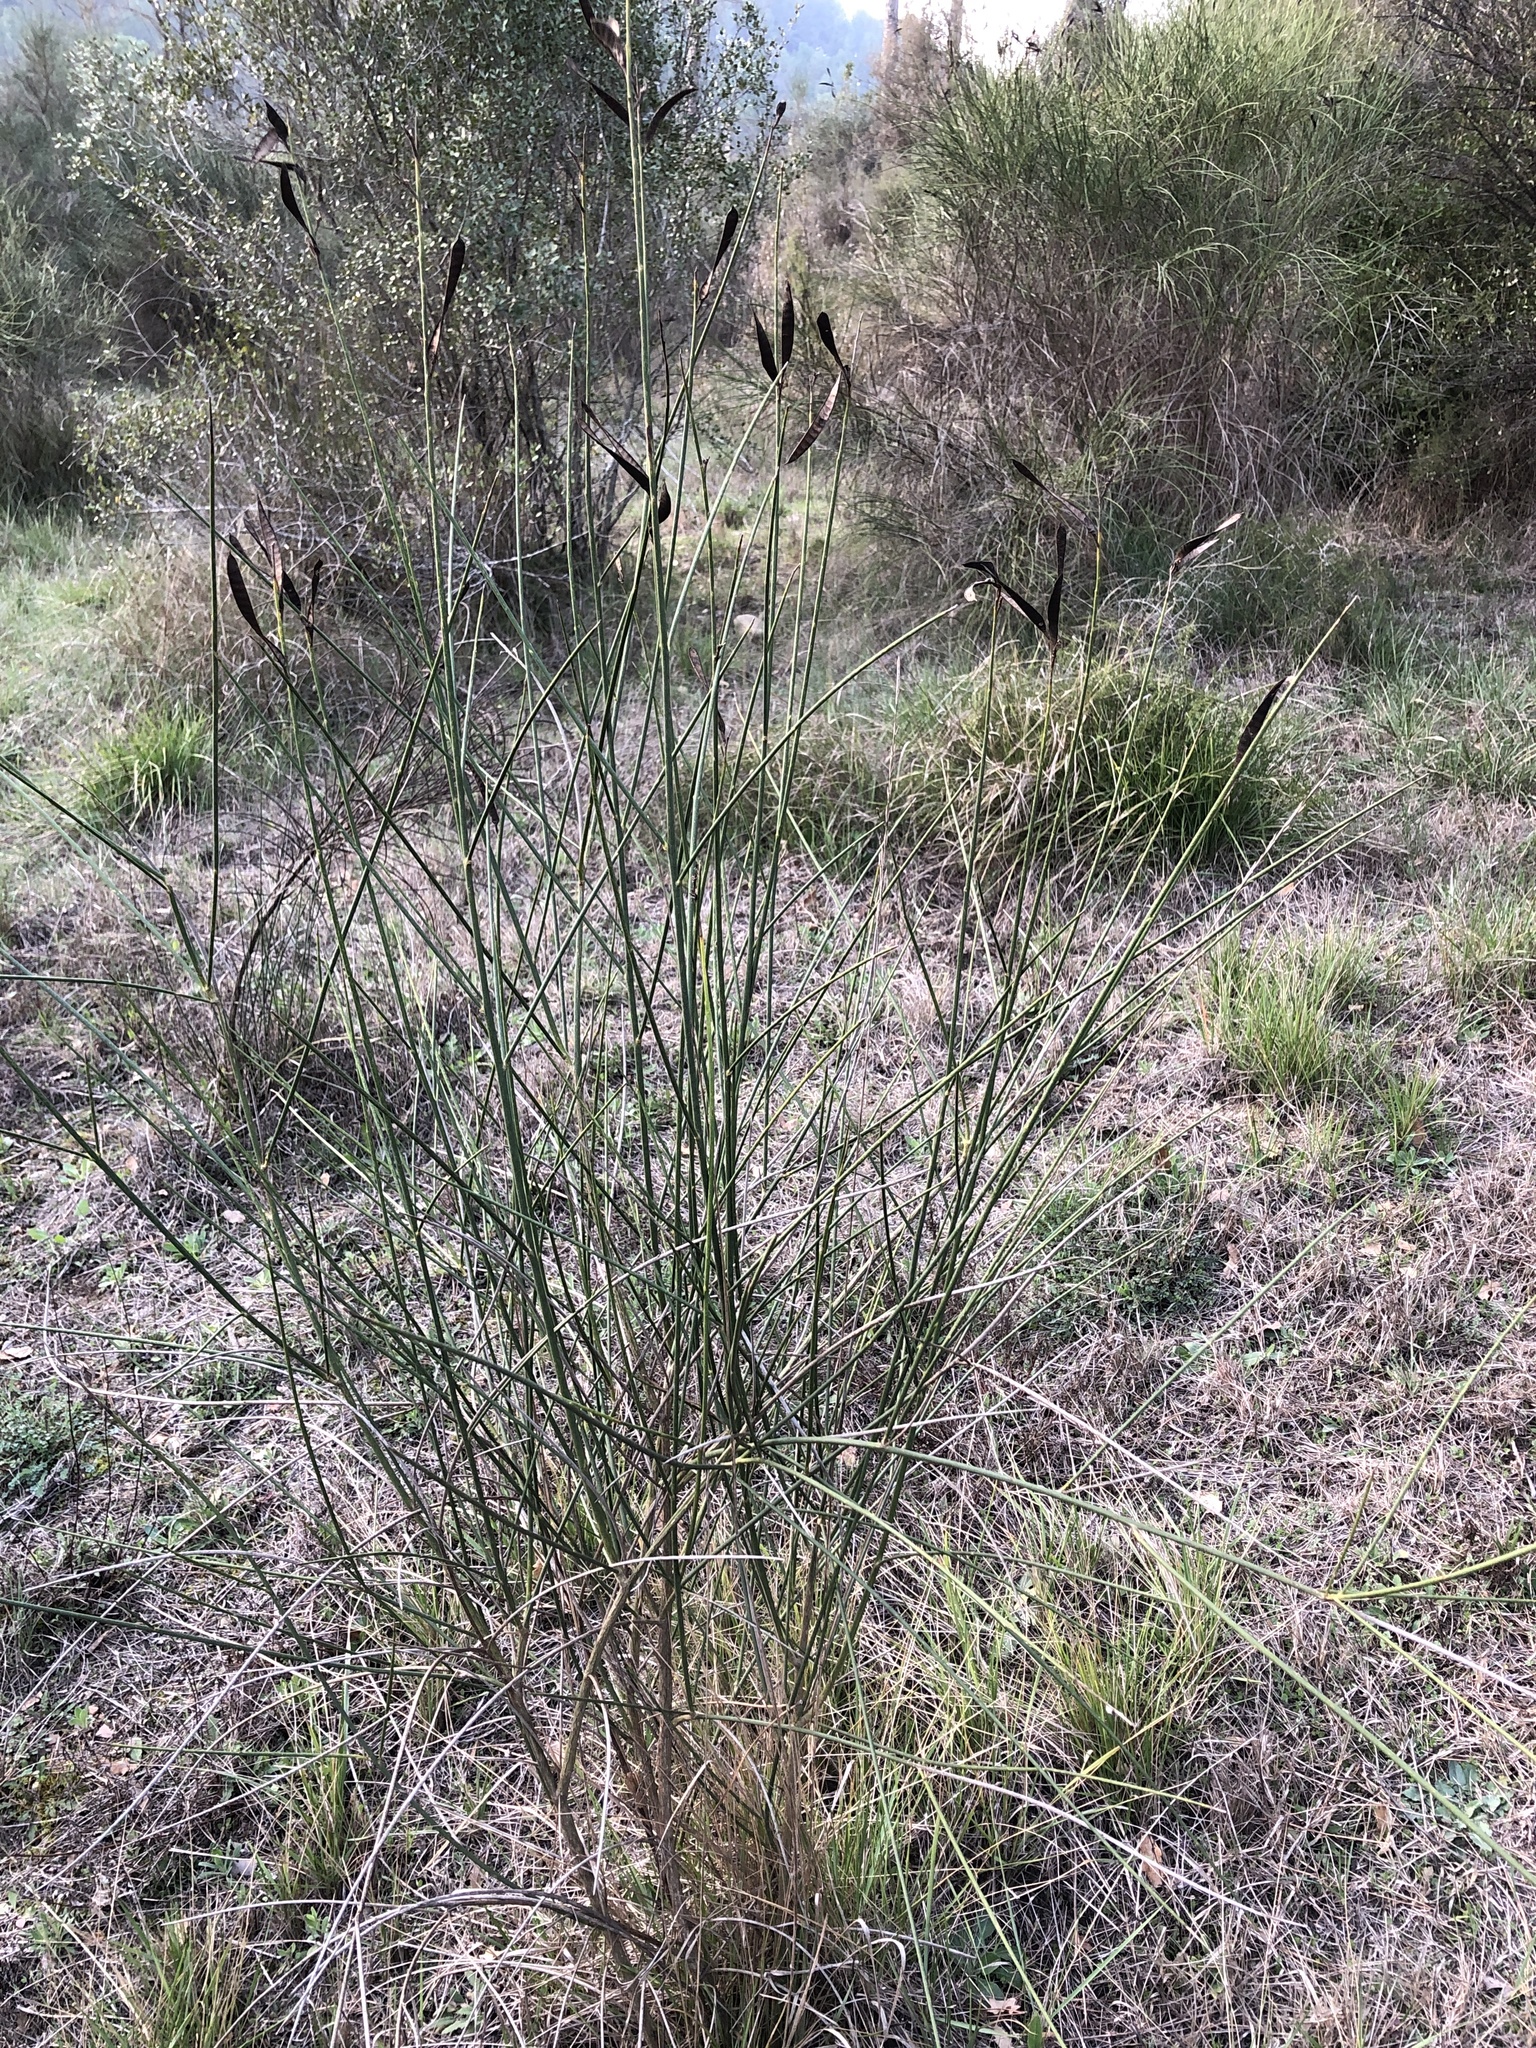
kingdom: Plantae
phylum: Tracheophyta
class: Magnoliopsida
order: Fabales
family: Fabaceae
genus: Spartium
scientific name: Spartium junceum
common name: Spanish broom
